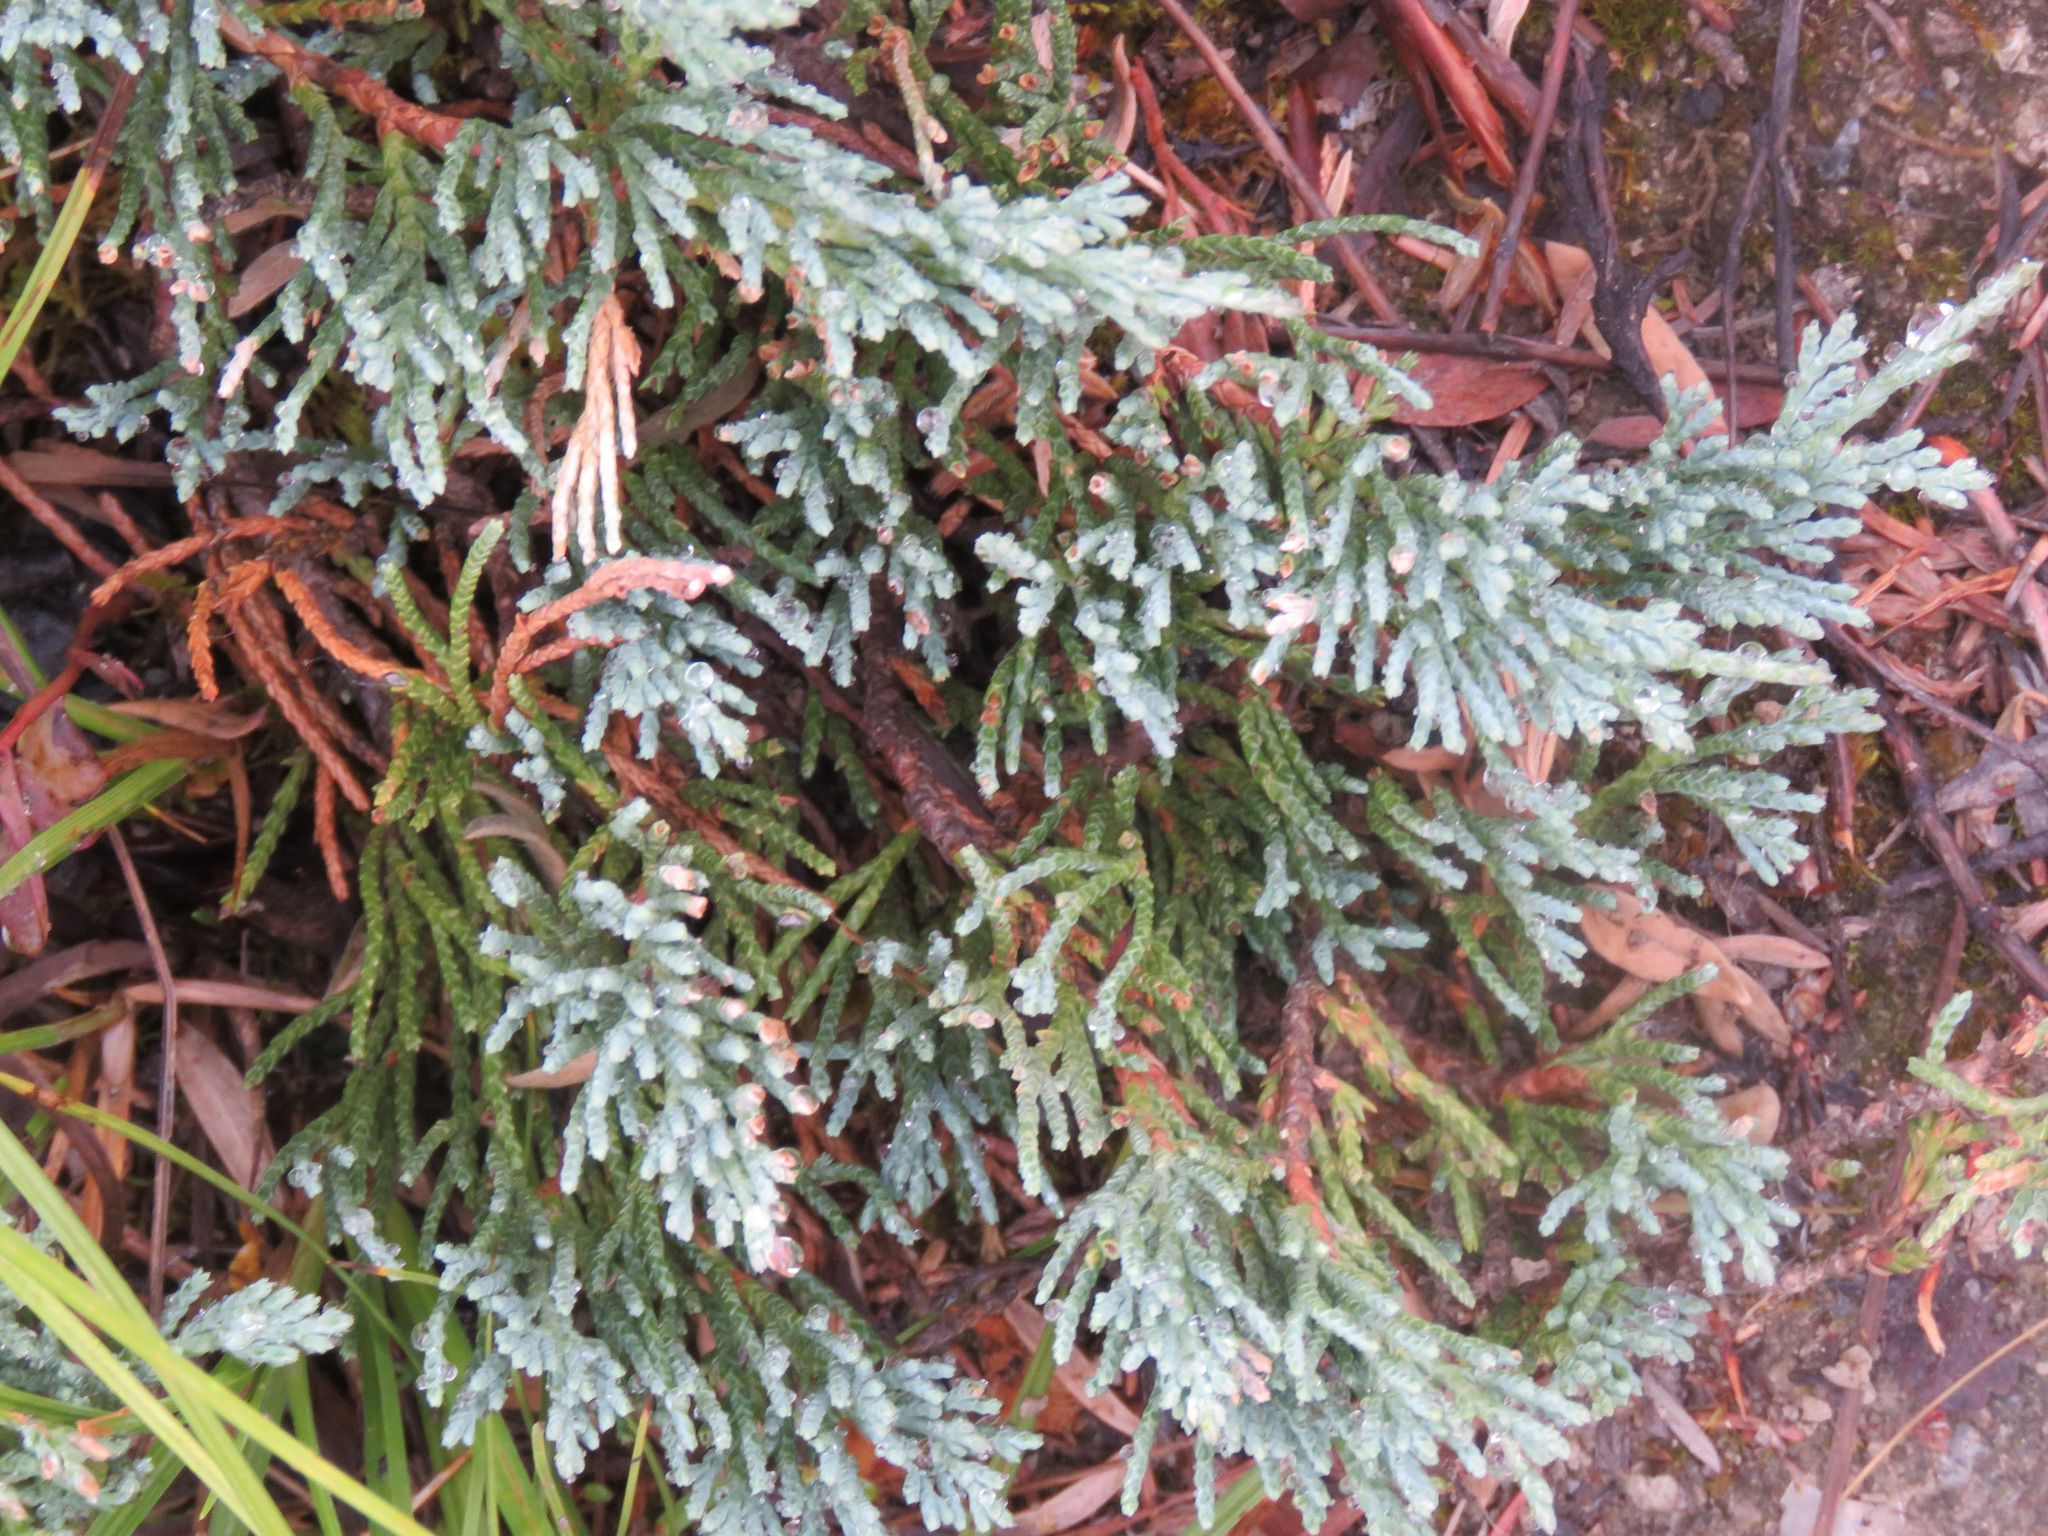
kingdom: Plantae
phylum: Tracheophyta
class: Pinopsida
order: Pinales
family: Cupressaceae
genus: Juniperus
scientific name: Juniperus horizontalis
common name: Creeping juniper
